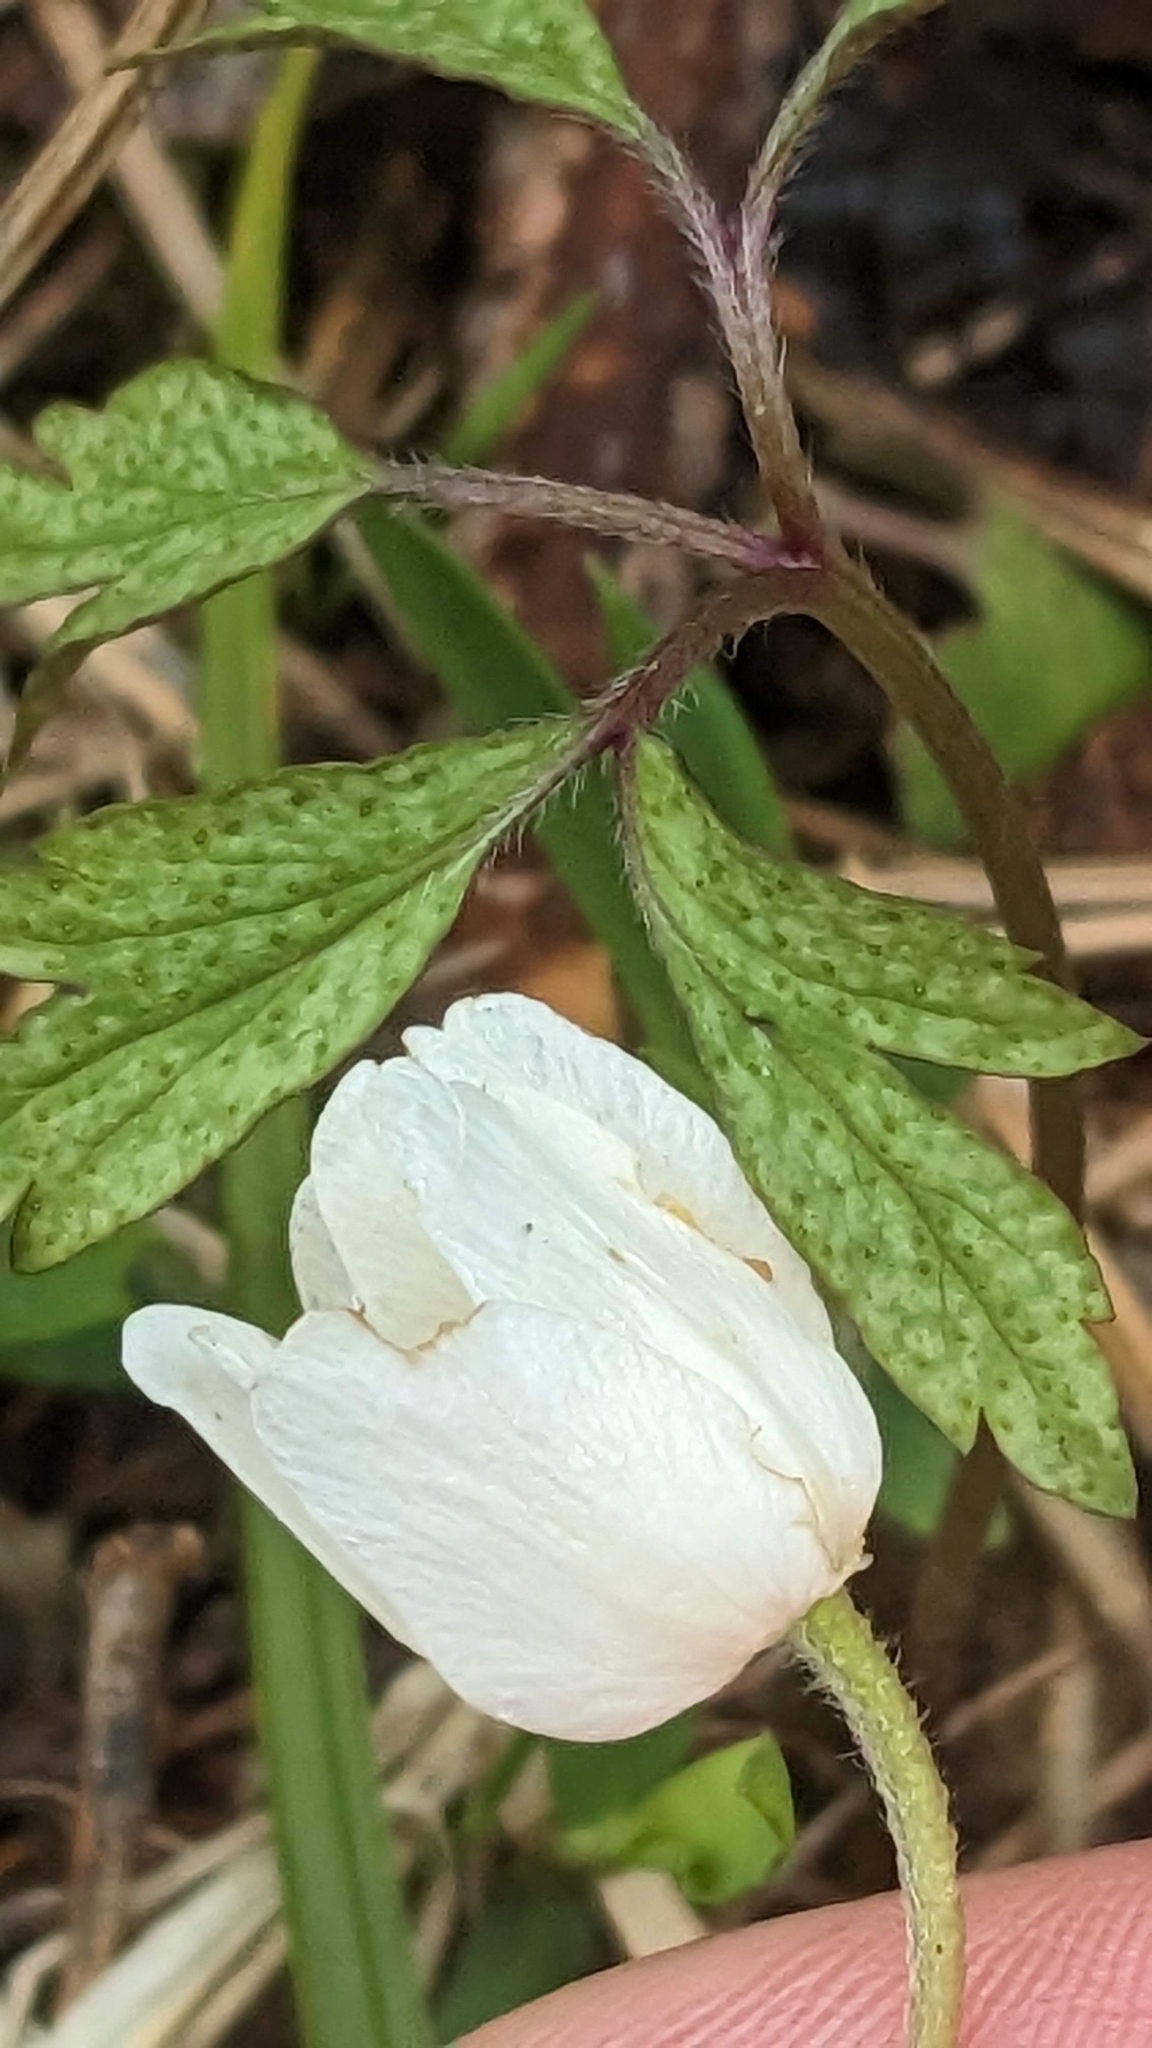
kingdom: Plantae
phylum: Tracheophyta
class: Magnoliopsida
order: Ranunculales
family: Ranunculaceae
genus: Anemone
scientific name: Anemone nemorosa
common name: Wood anemone
